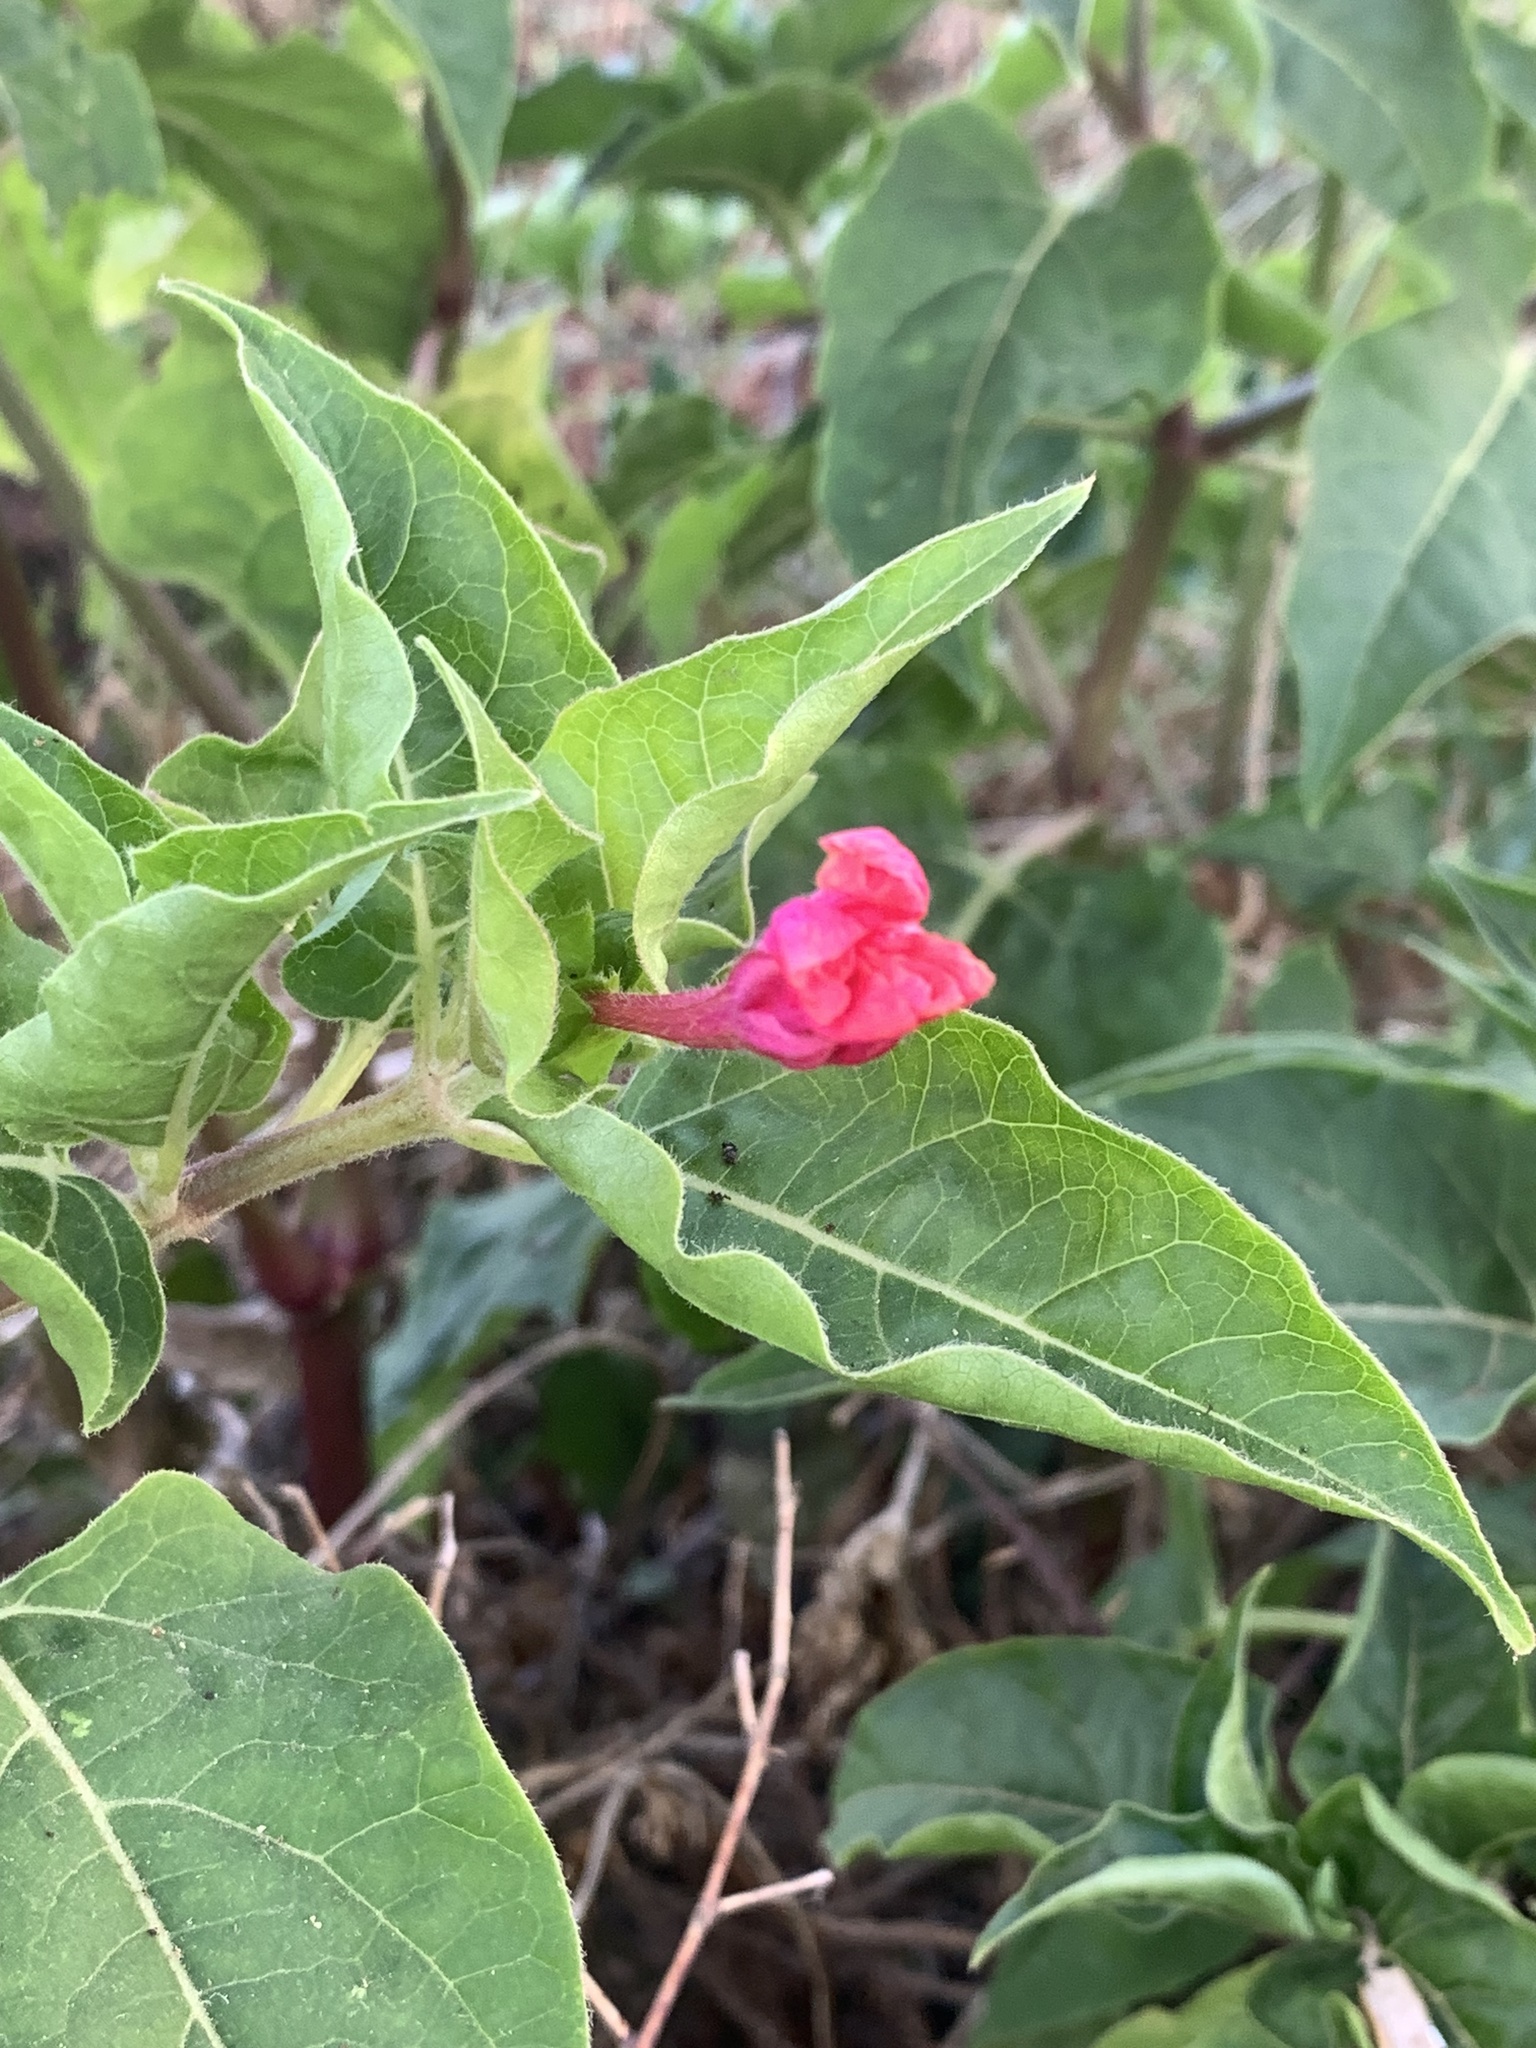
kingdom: Plantae
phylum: Tracheophyta
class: Magnoliopsida
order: Caryophyllales
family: Nyctaginaceae
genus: Mirabilis
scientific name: Mirabilis jalapa
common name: Marvel-of-peru
